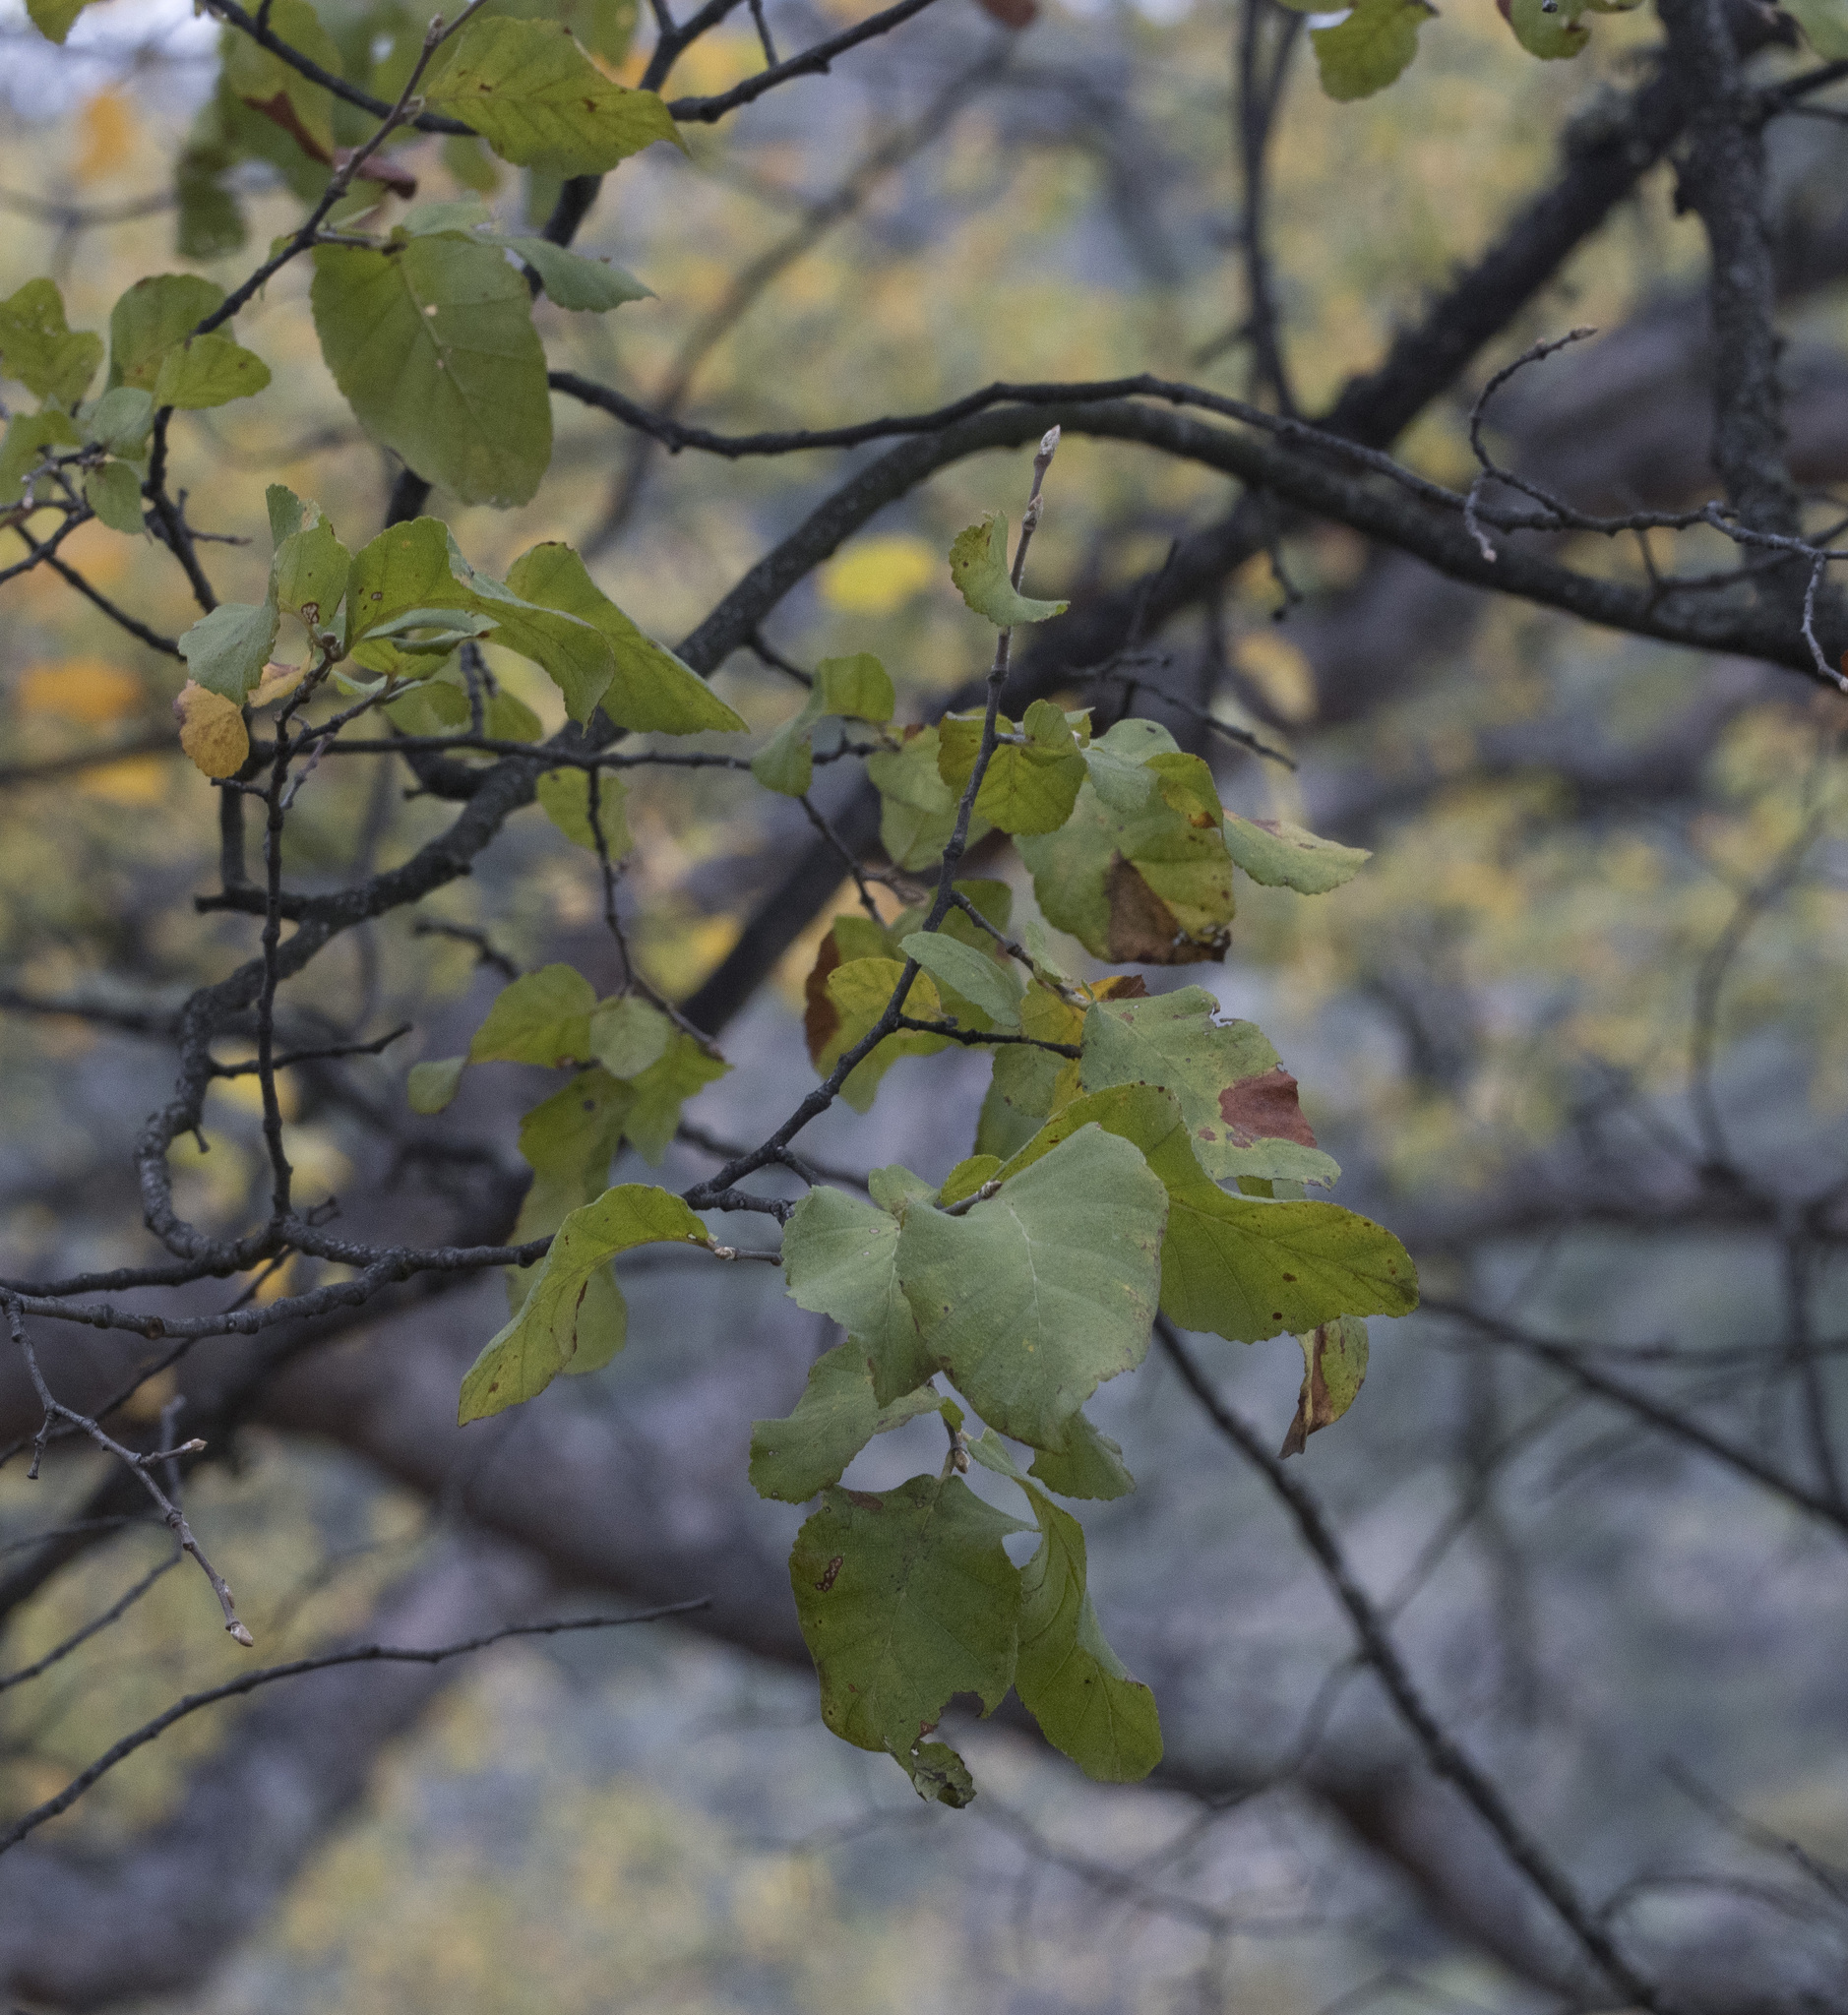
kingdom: Plantae
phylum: Tracheophyta
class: Magnoliopsida
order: Fagales
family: Nothofagaceae
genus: Nothofagus
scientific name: Nothofagus glauca
